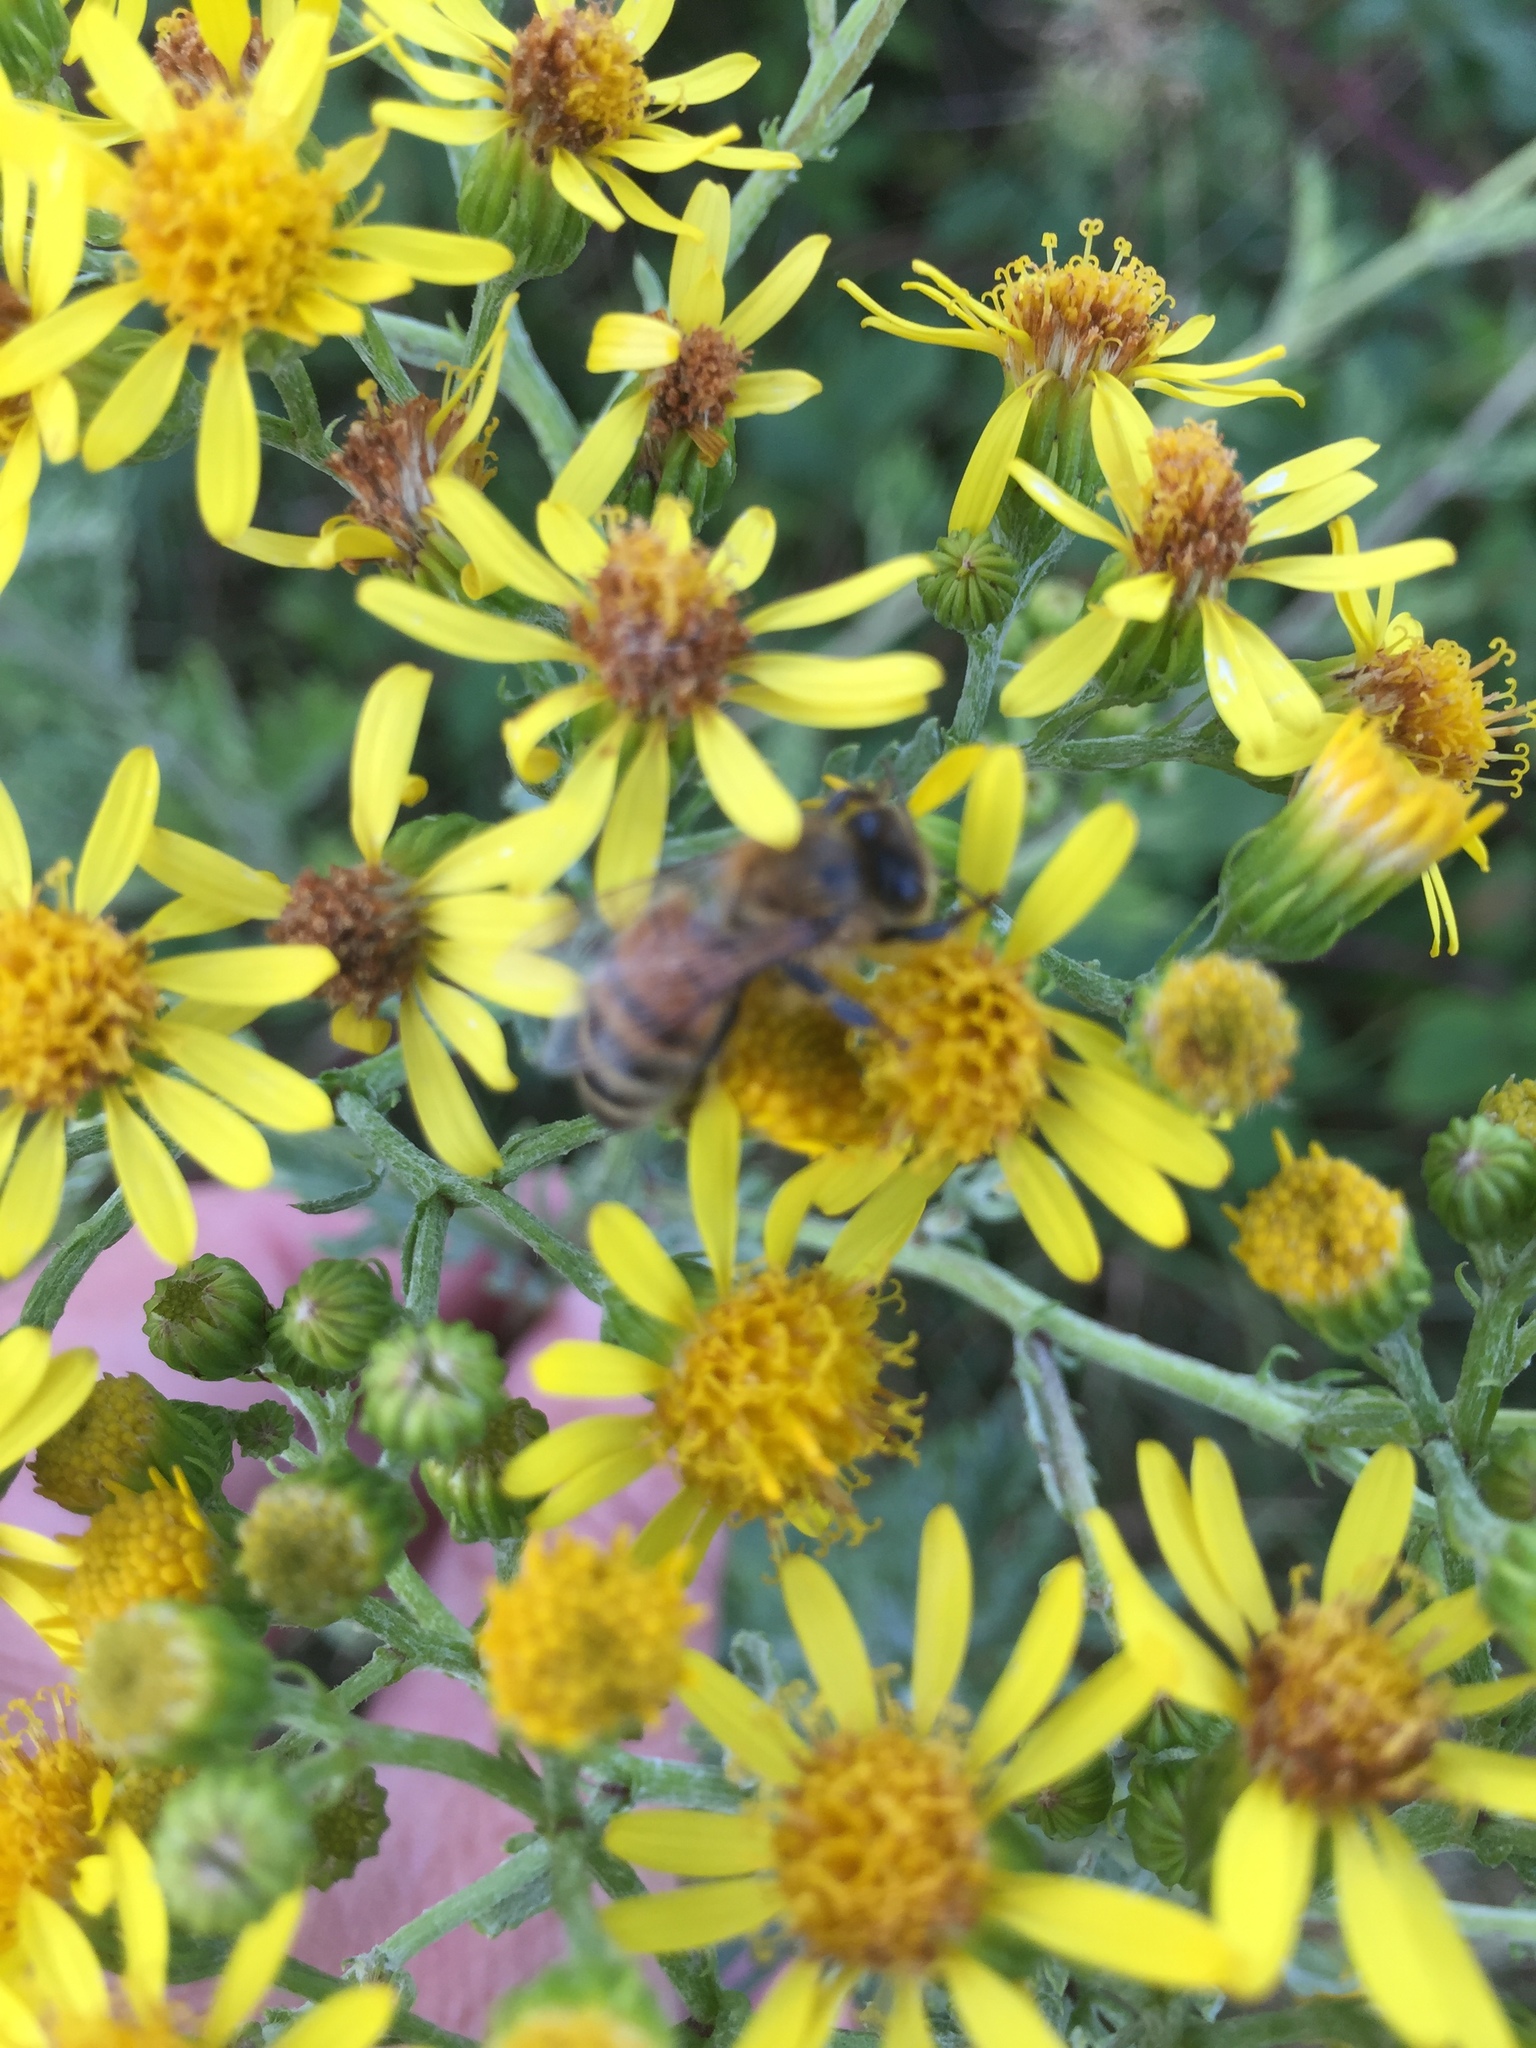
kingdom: Plantae
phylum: Tracheophyta
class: Magnoliopsida
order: Asterales
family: Asteraceae
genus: Jacobaea
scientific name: Jacobaea vulgaris
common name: Stinking willie
